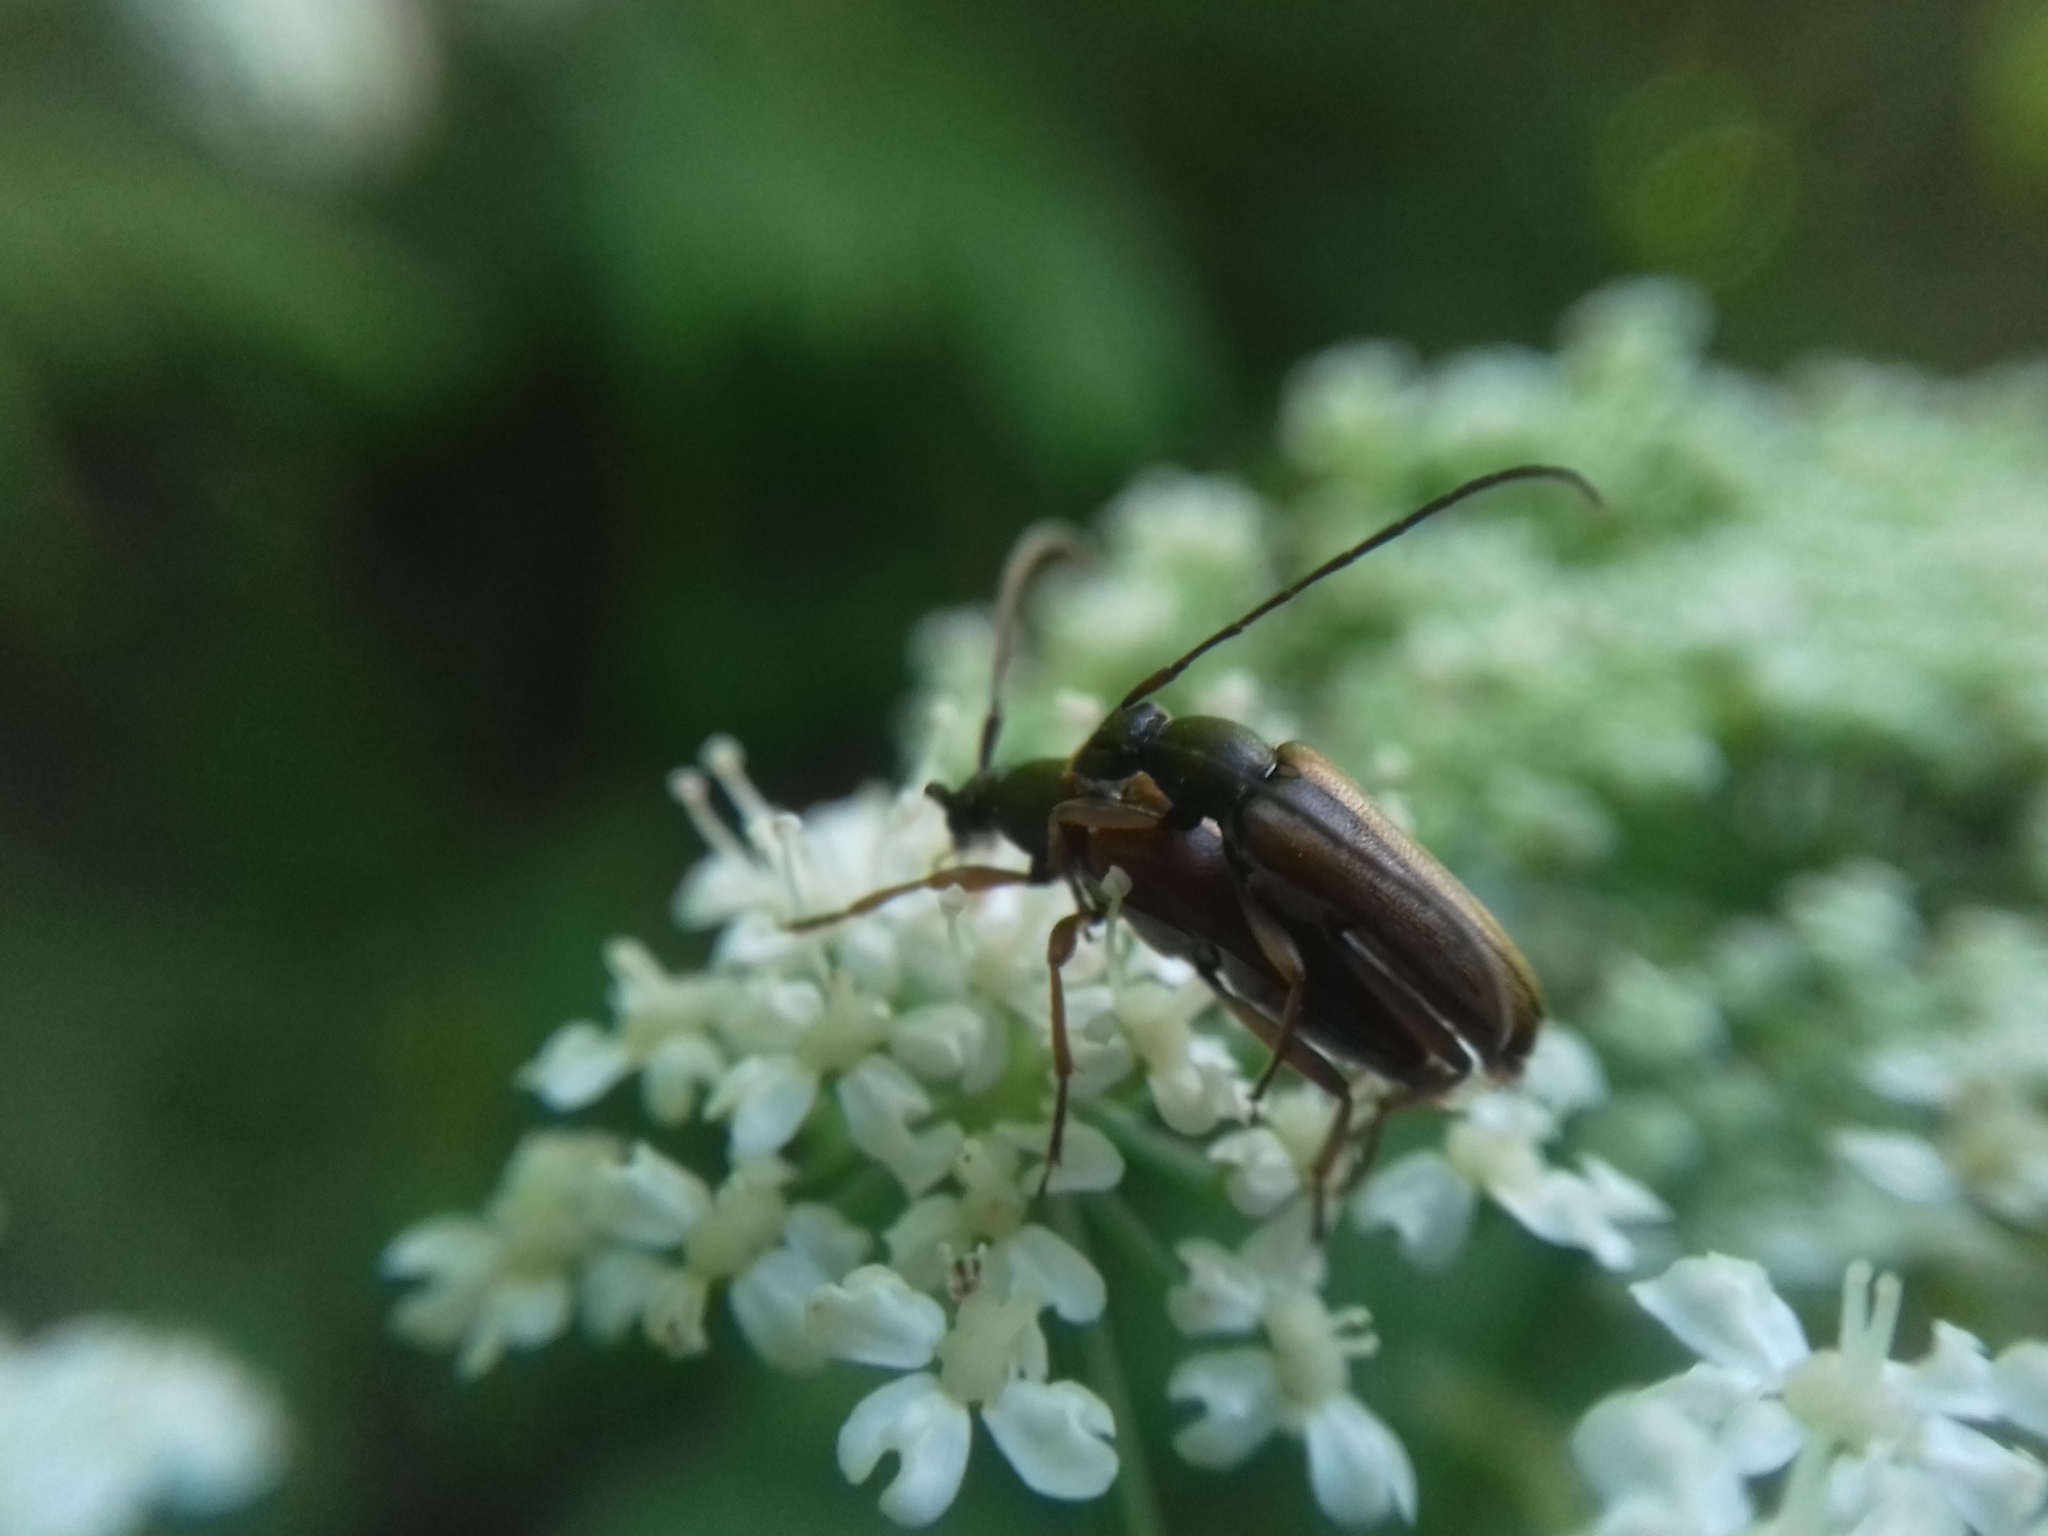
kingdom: Animalia
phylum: Arthropoda
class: Insecta
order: Coleoptera
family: Cerambycidae
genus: Alosterna
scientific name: Alosterna tabacicolor
